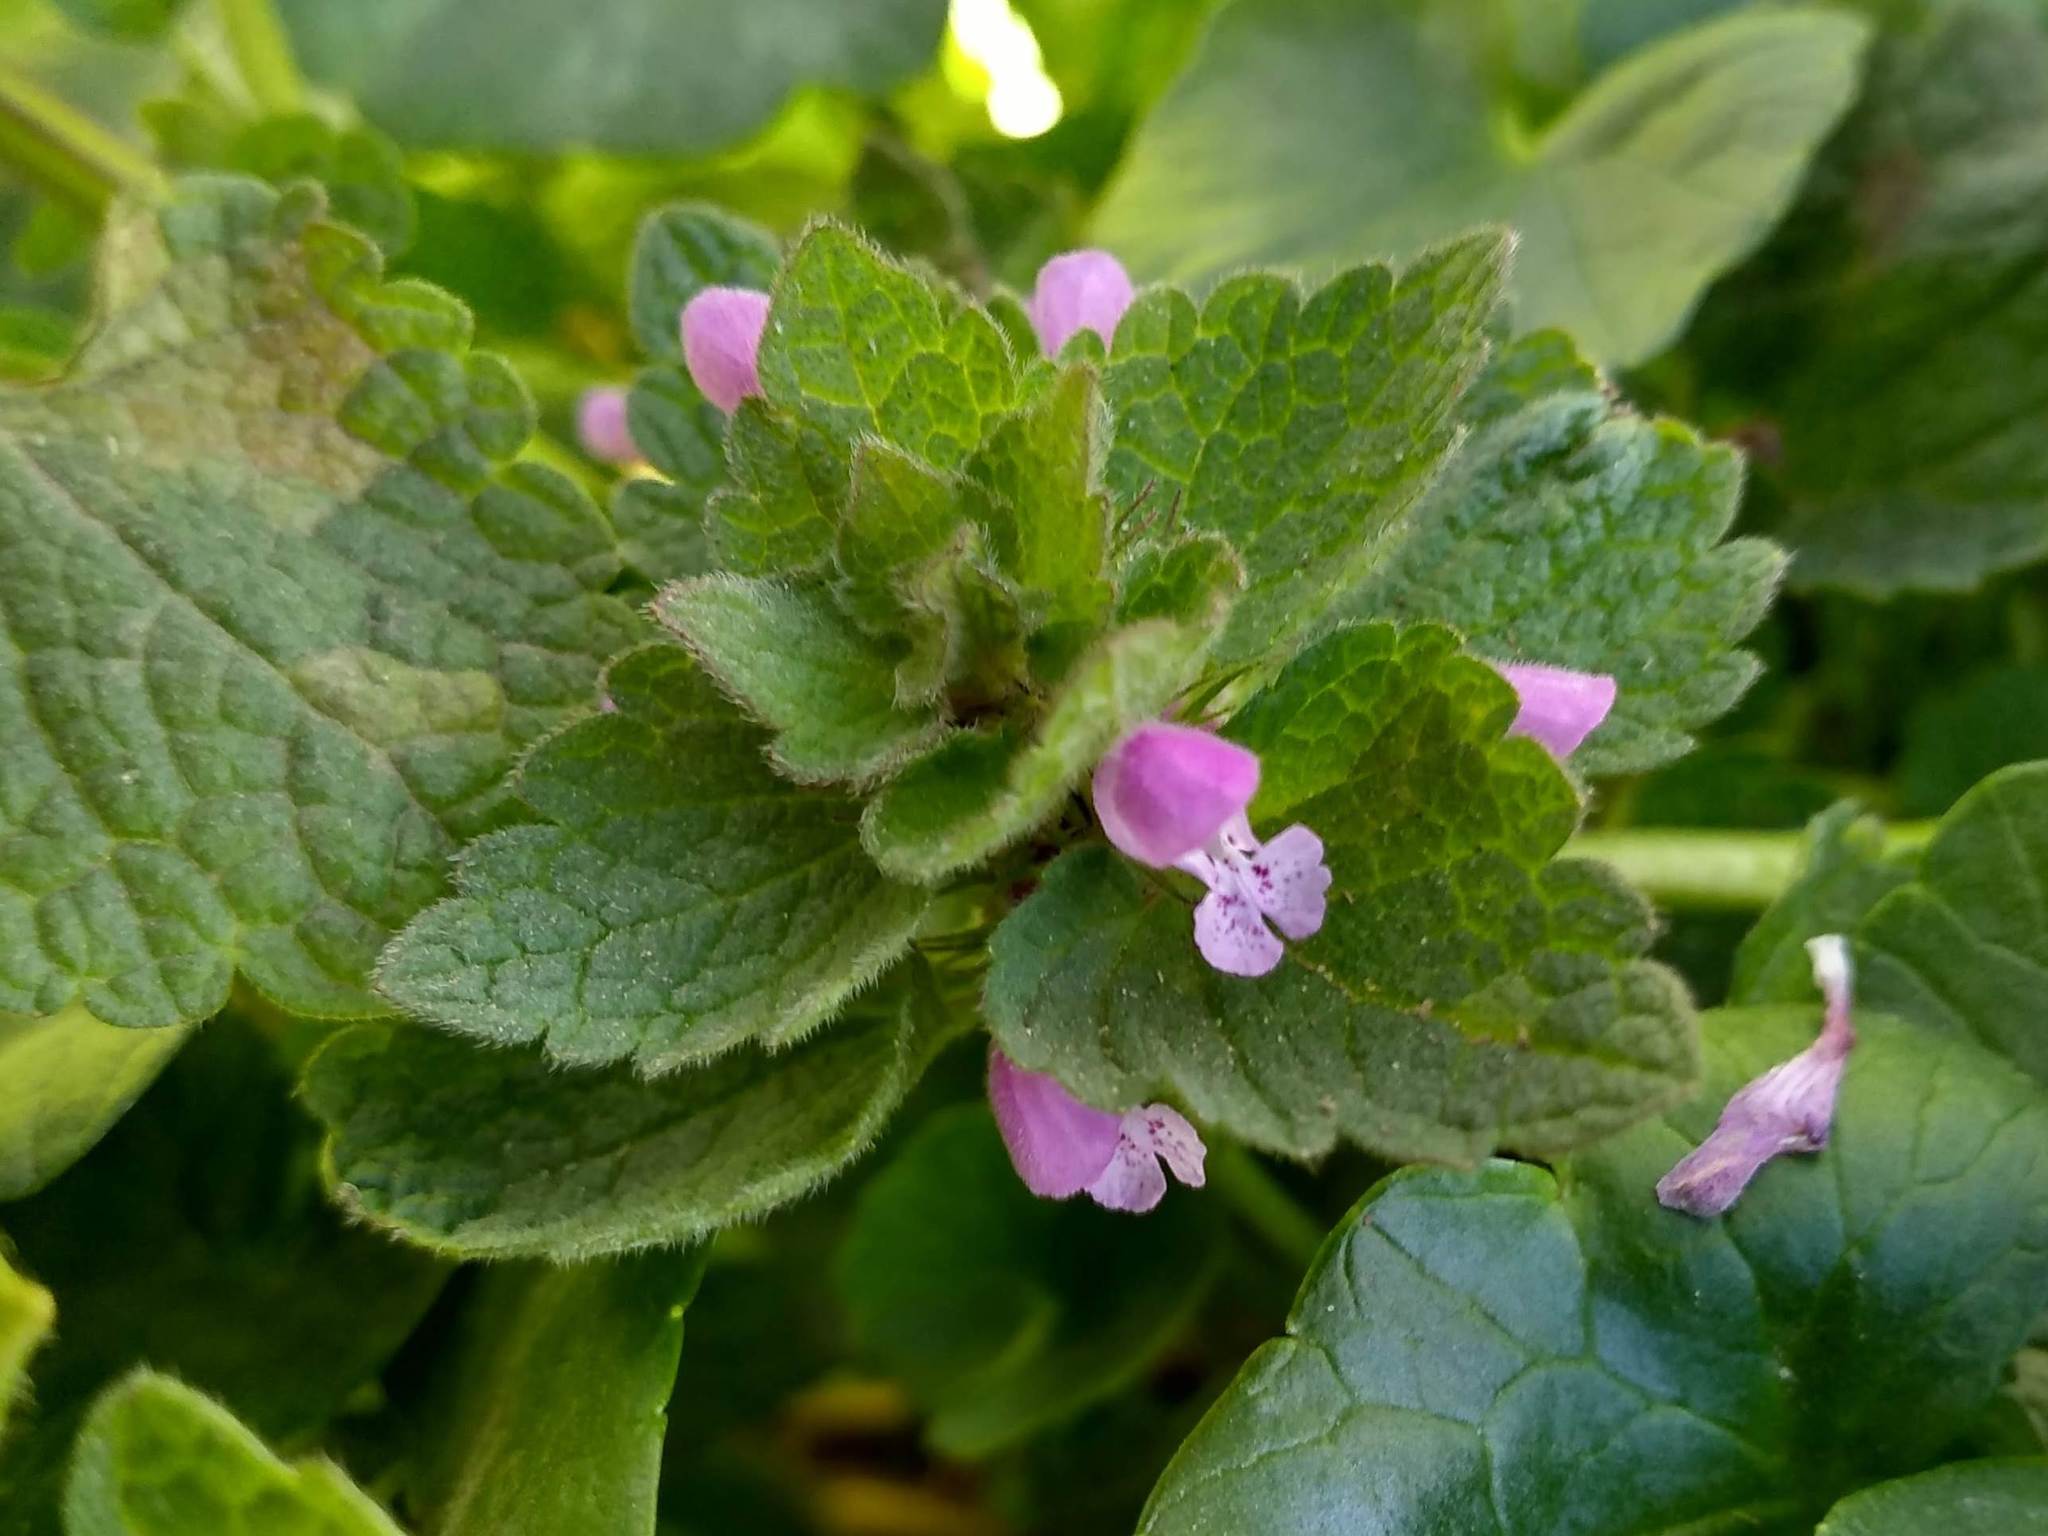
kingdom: Plantae
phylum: Tracheophyta
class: Magnoliopsida
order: Lamiales
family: Lamiaceae
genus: Lamium
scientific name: Lamium purpureum
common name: Red dead-nettle
